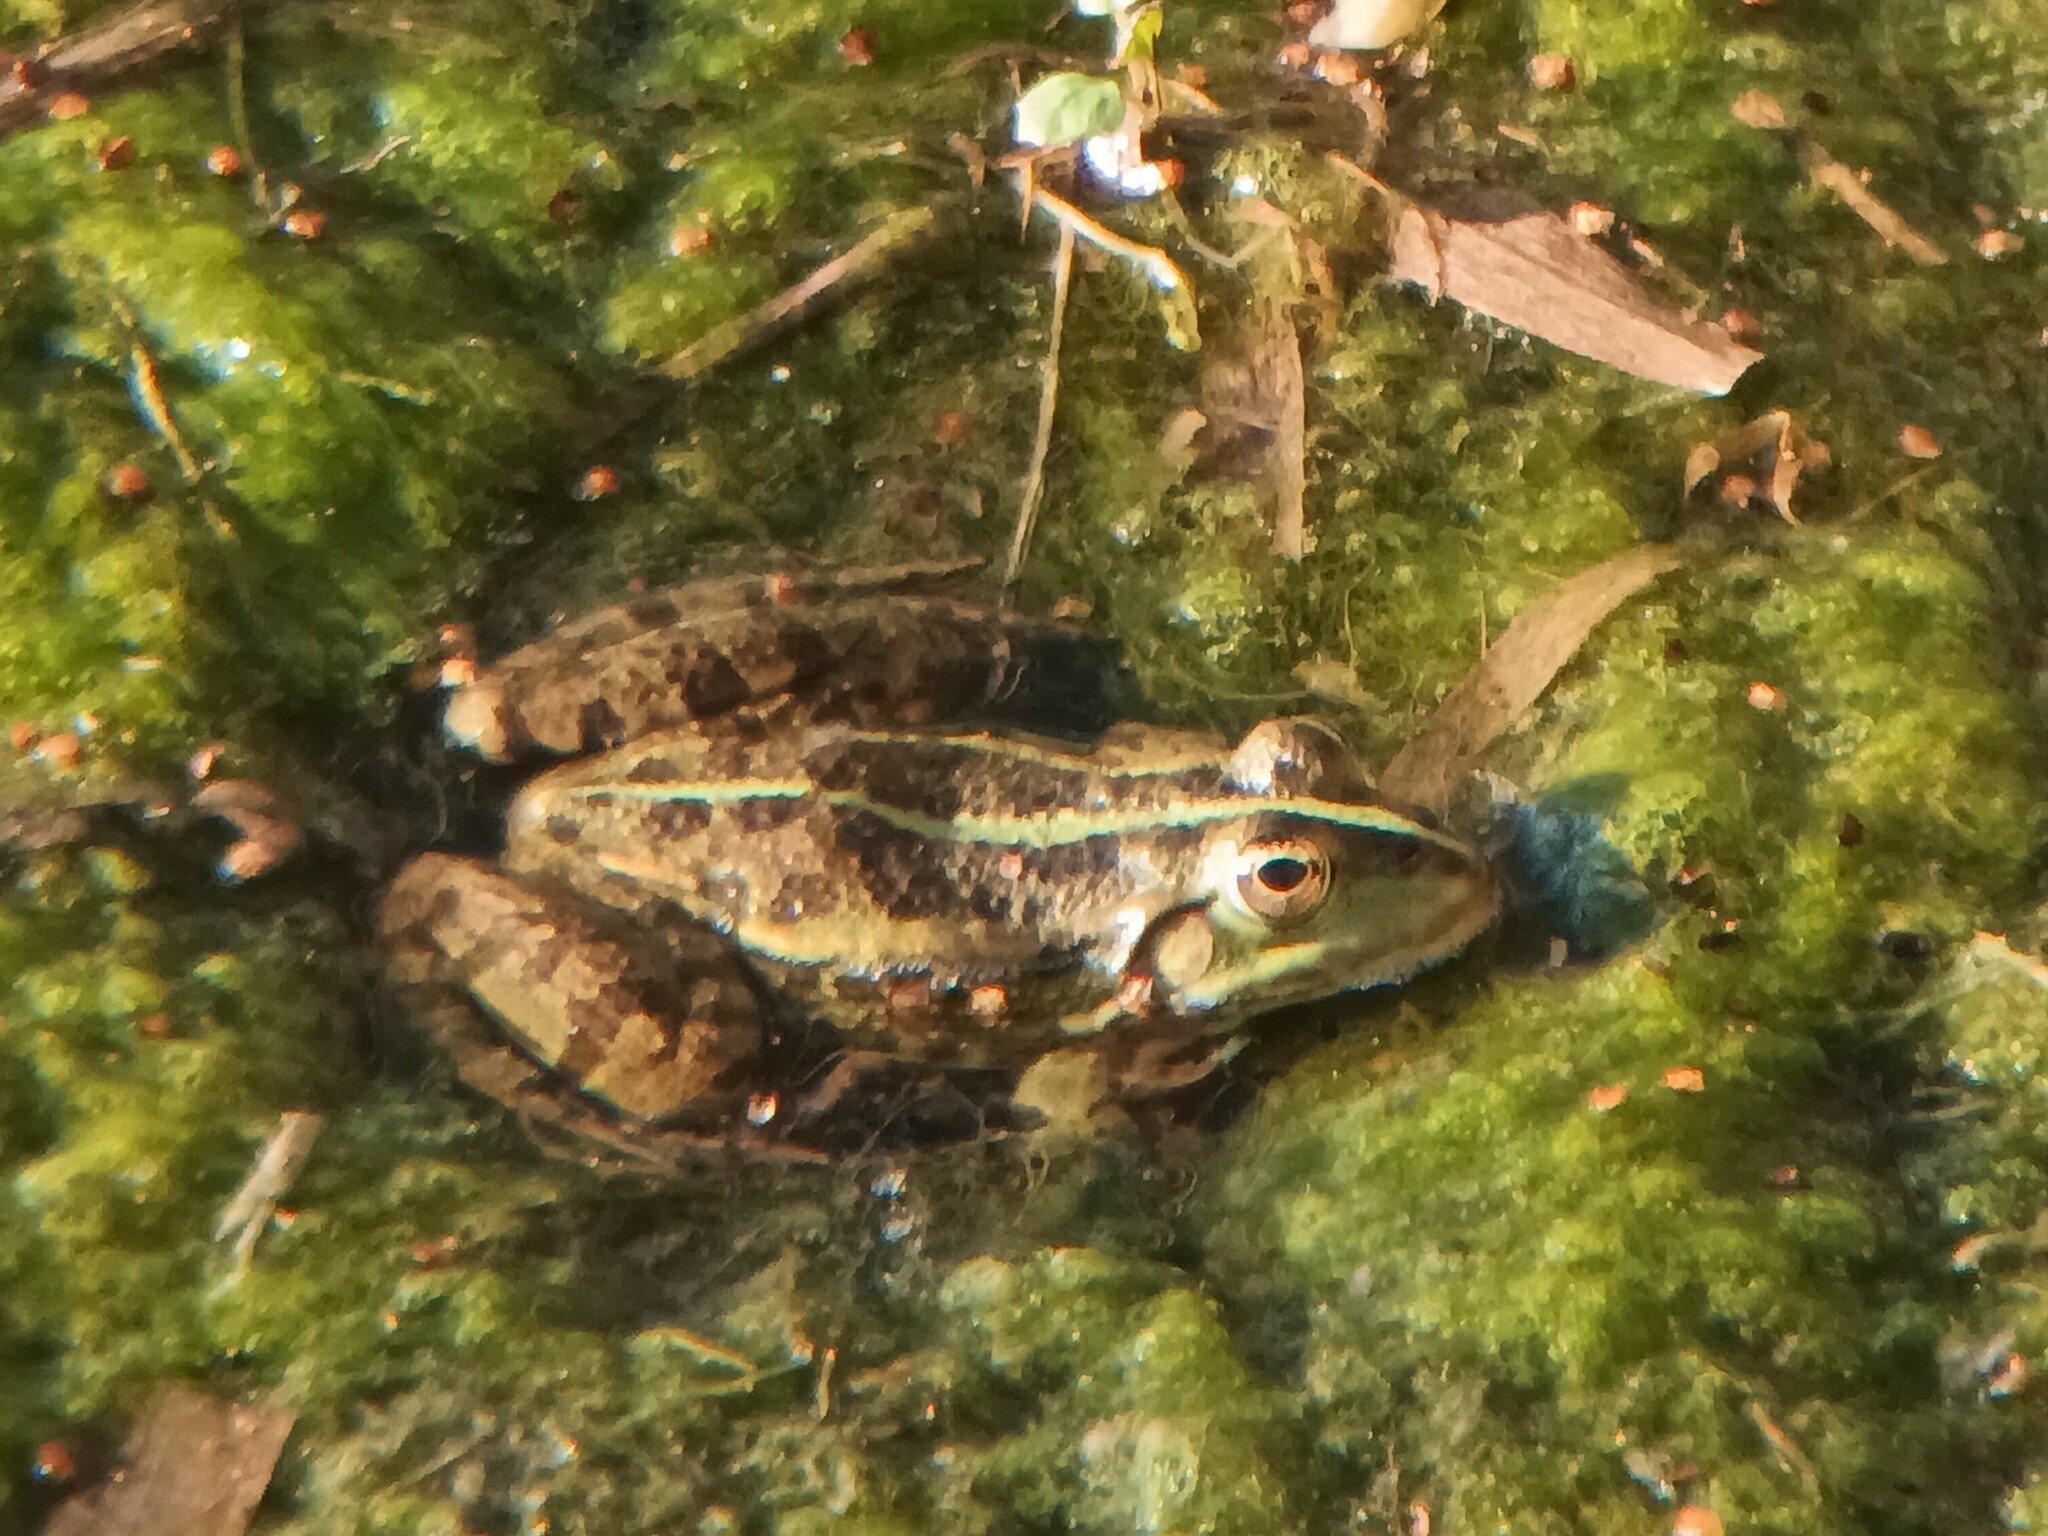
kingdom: Animalia
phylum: Chordata
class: Amphibia
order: Anura
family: Ranidae
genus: Pelophylax
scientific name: Pelophylax
